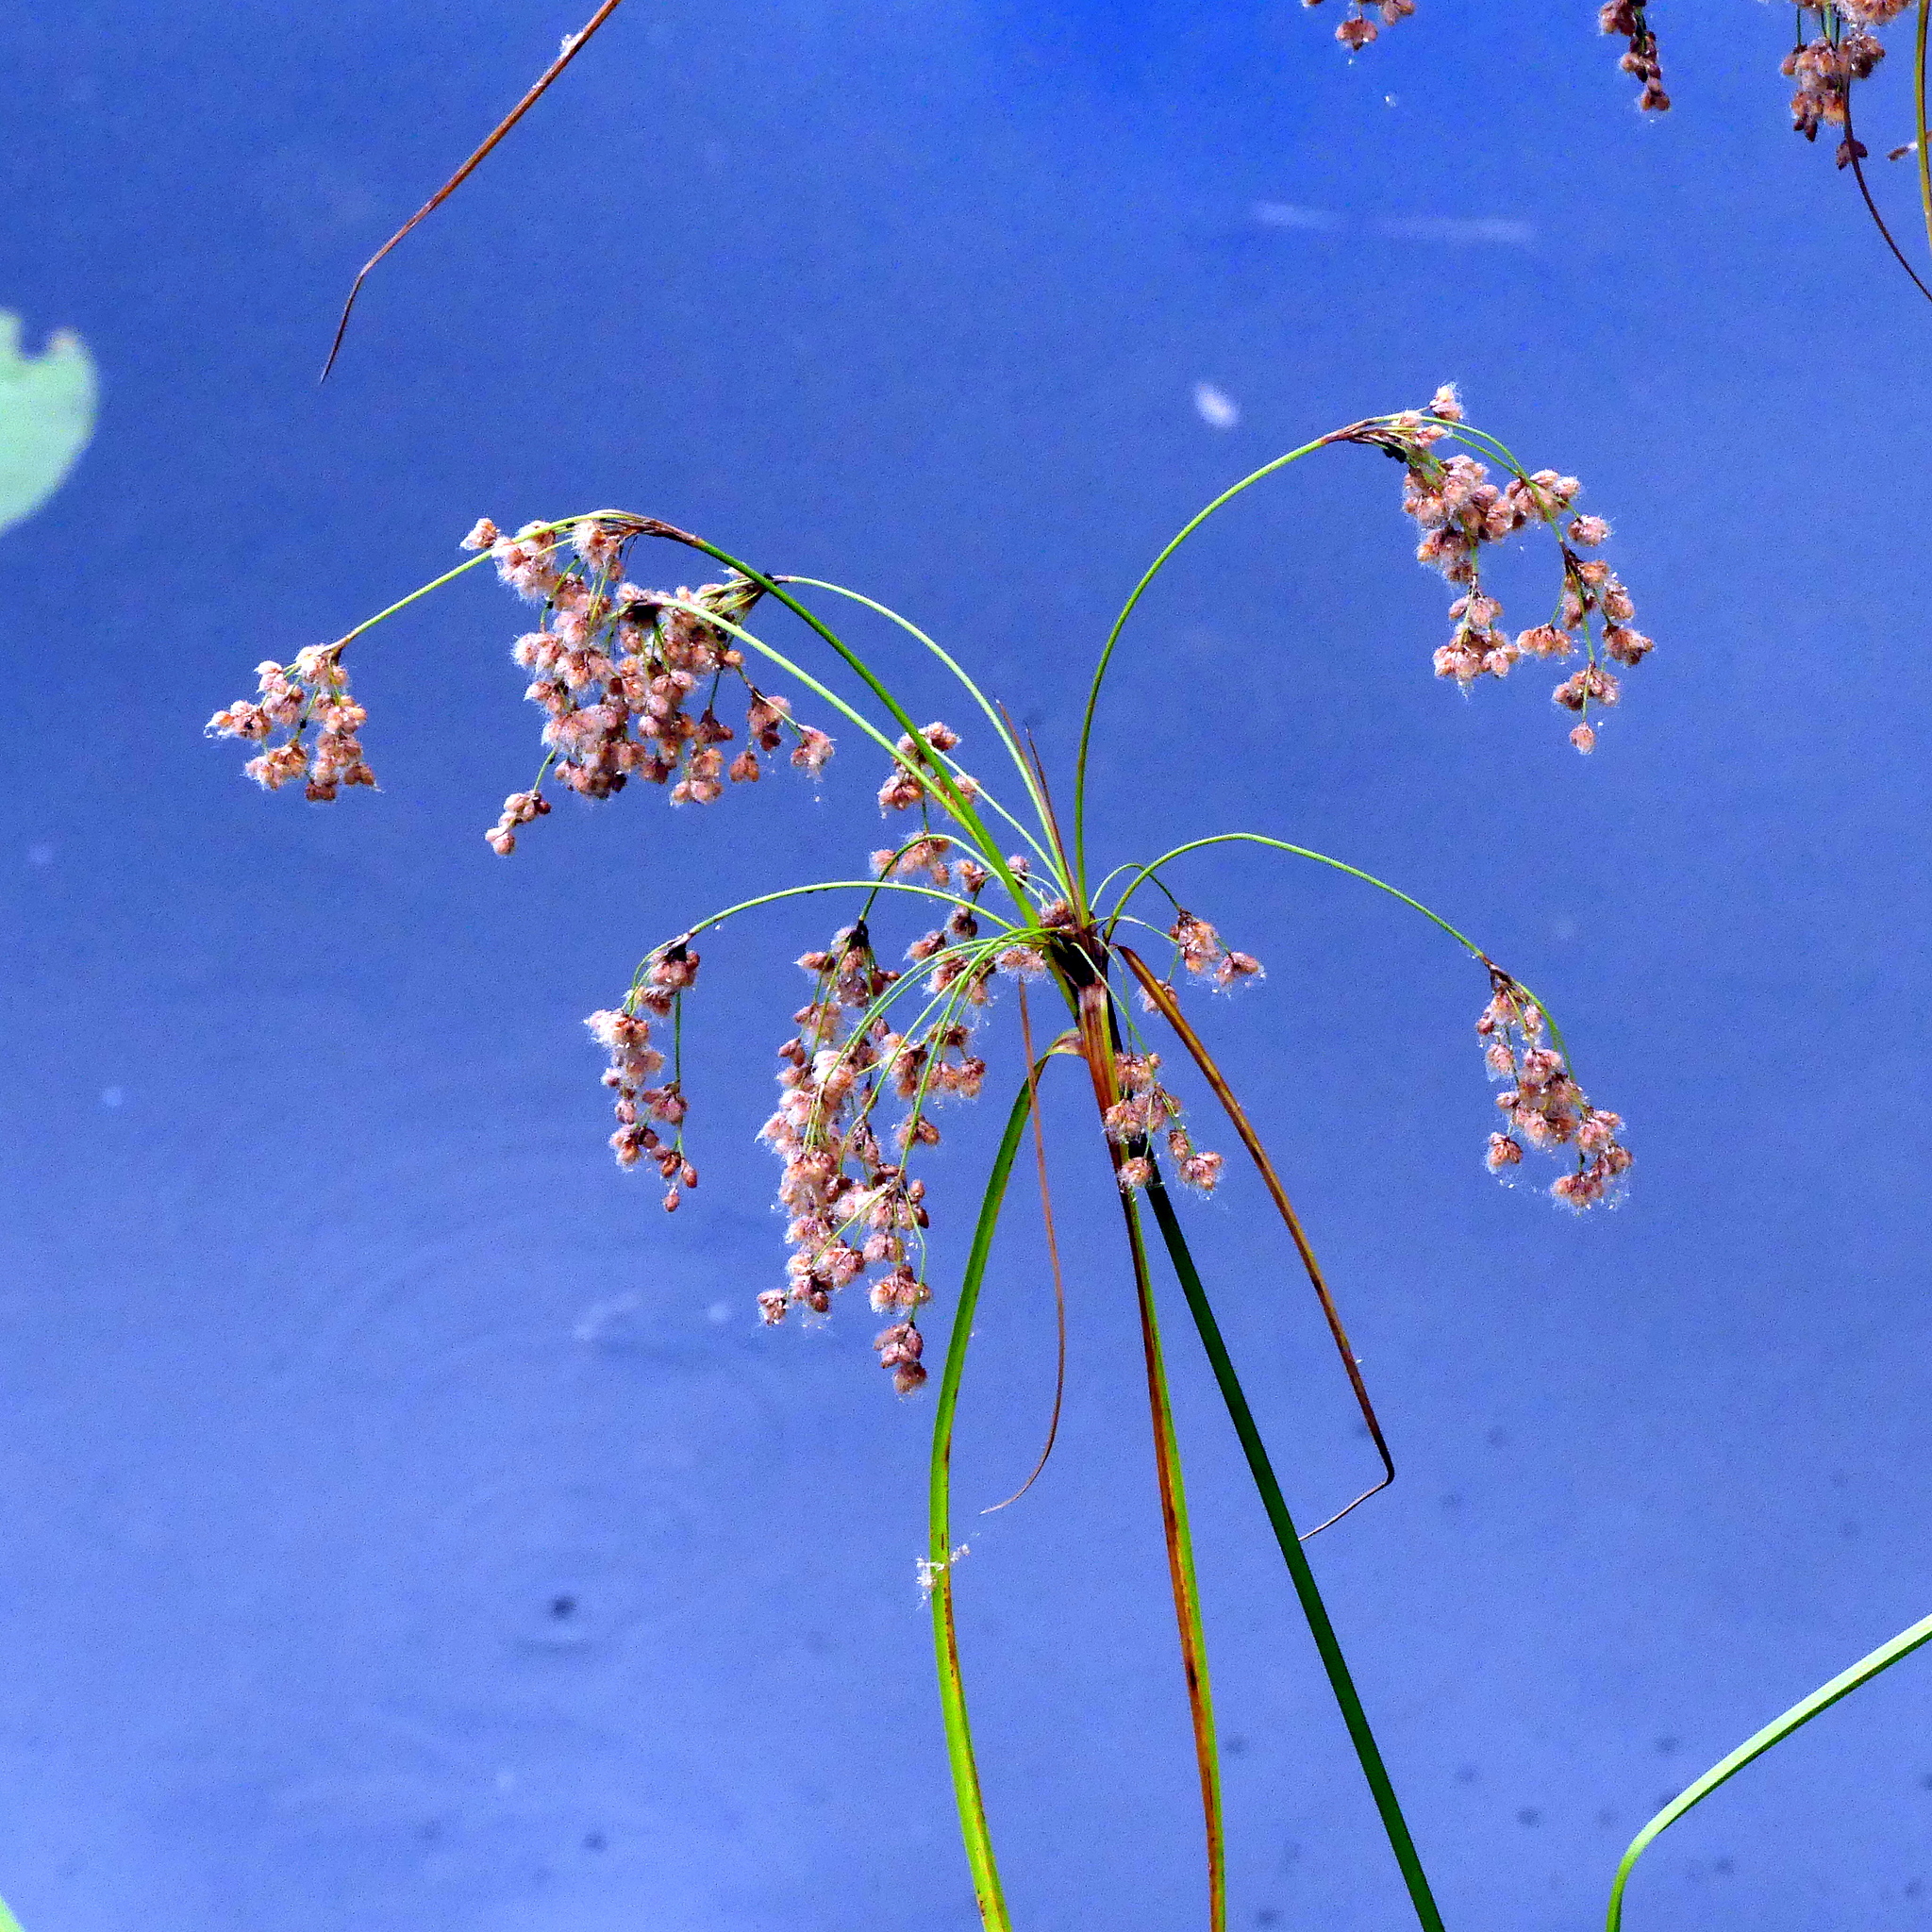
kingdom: Plantae
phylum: Tracheophyta
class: Liliopsida
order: Poales
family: Cyperaceae
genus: Scirpus
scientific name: Scirpus cyperinus
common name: Black-sheathed bulrush
